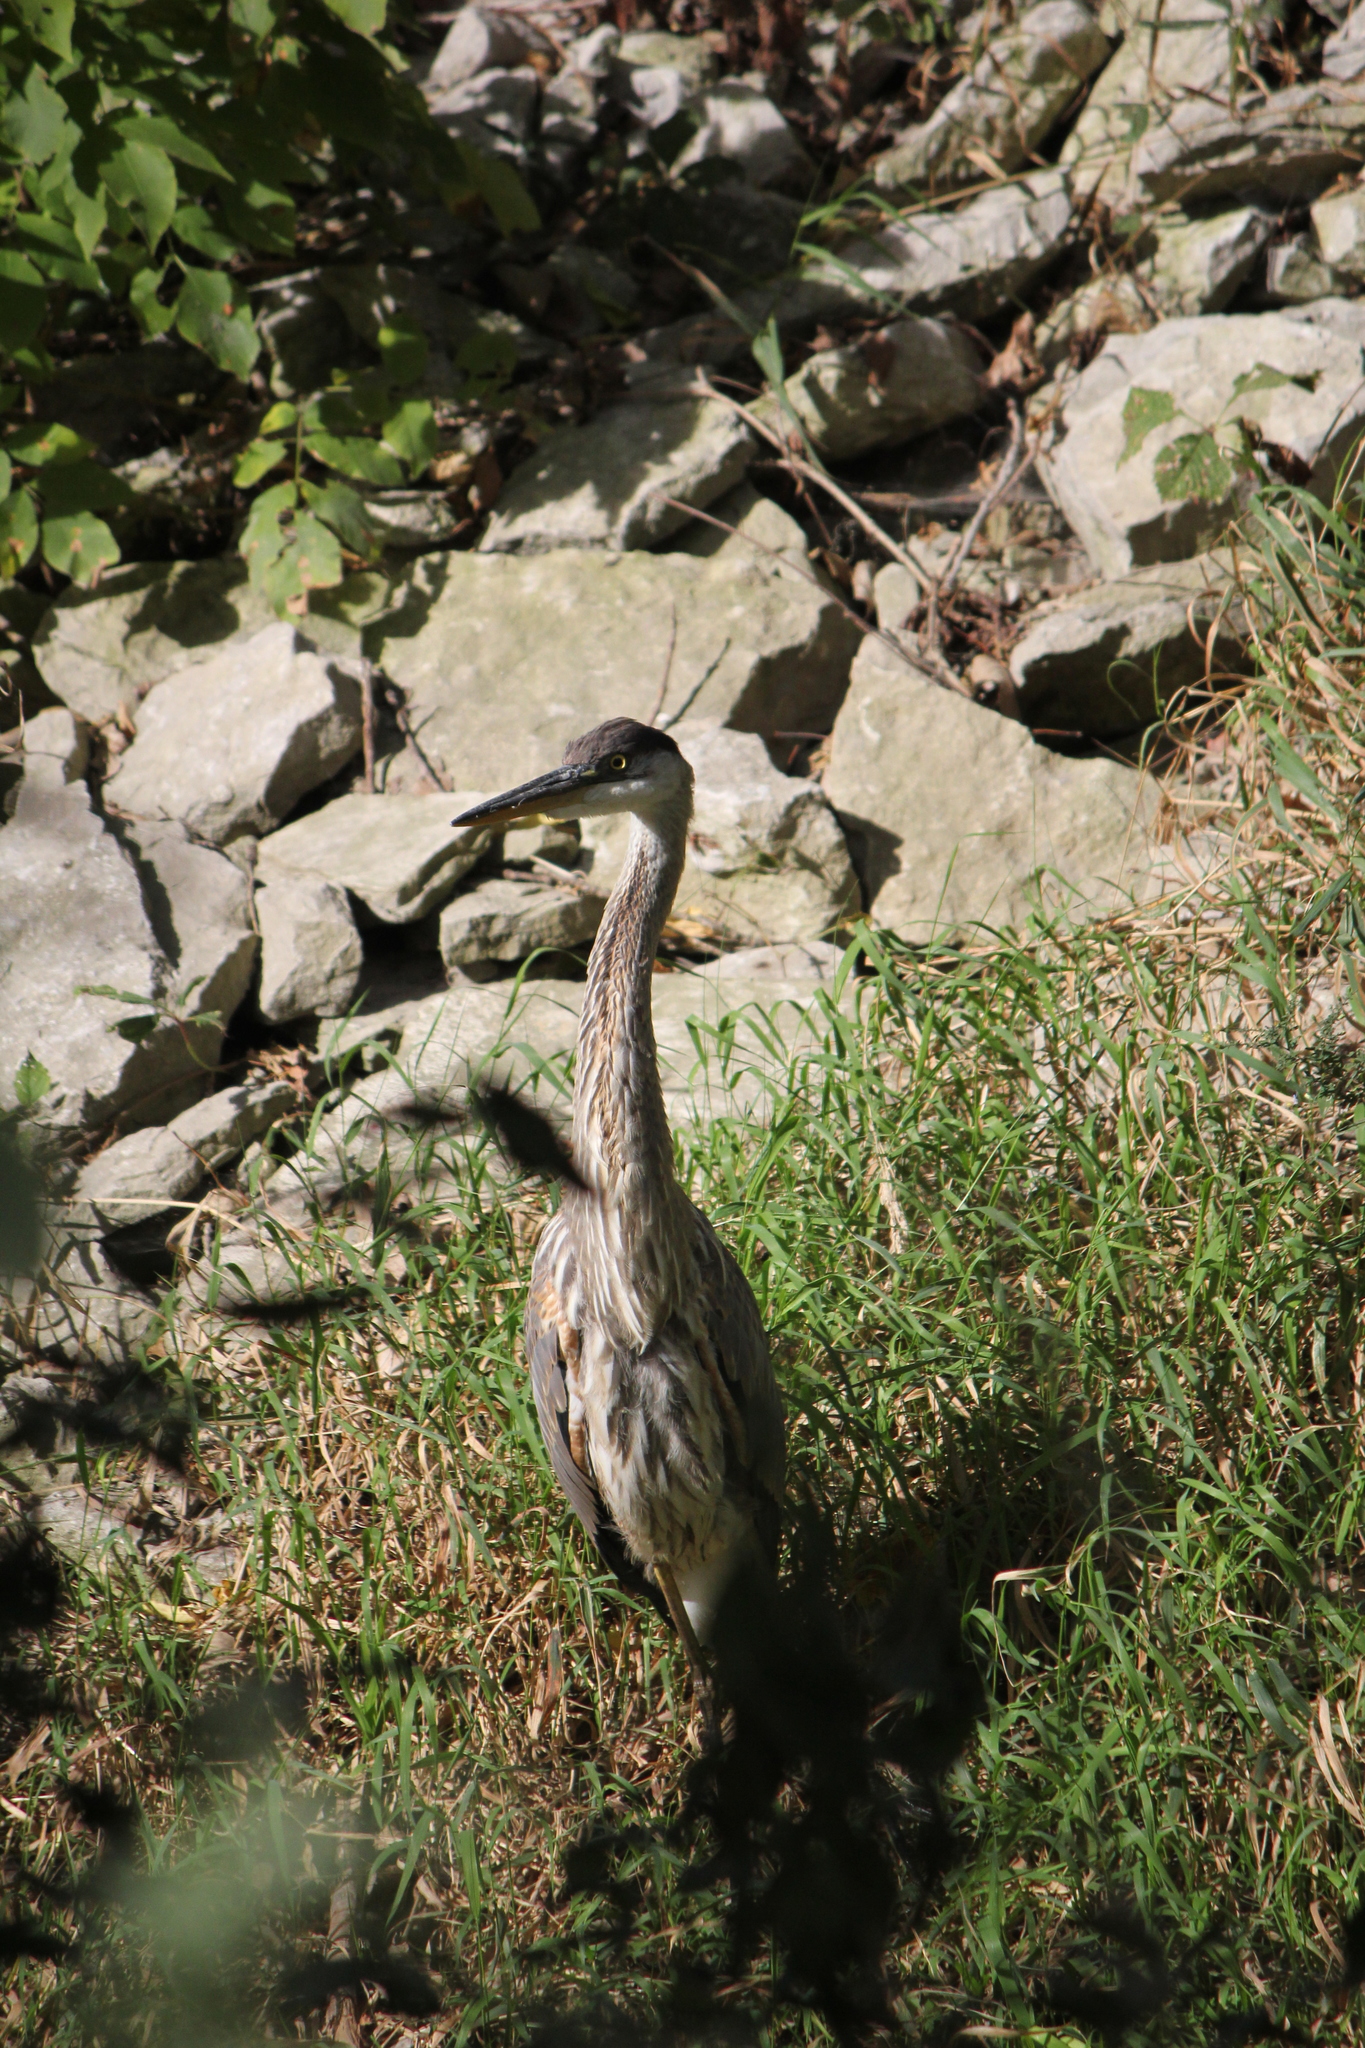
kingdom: Animalia
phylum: Chordata
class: Aves
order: Pelecaniformes
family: Ardeidae
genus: Ardea
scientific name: Ardea herodias
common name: Great blue heron
